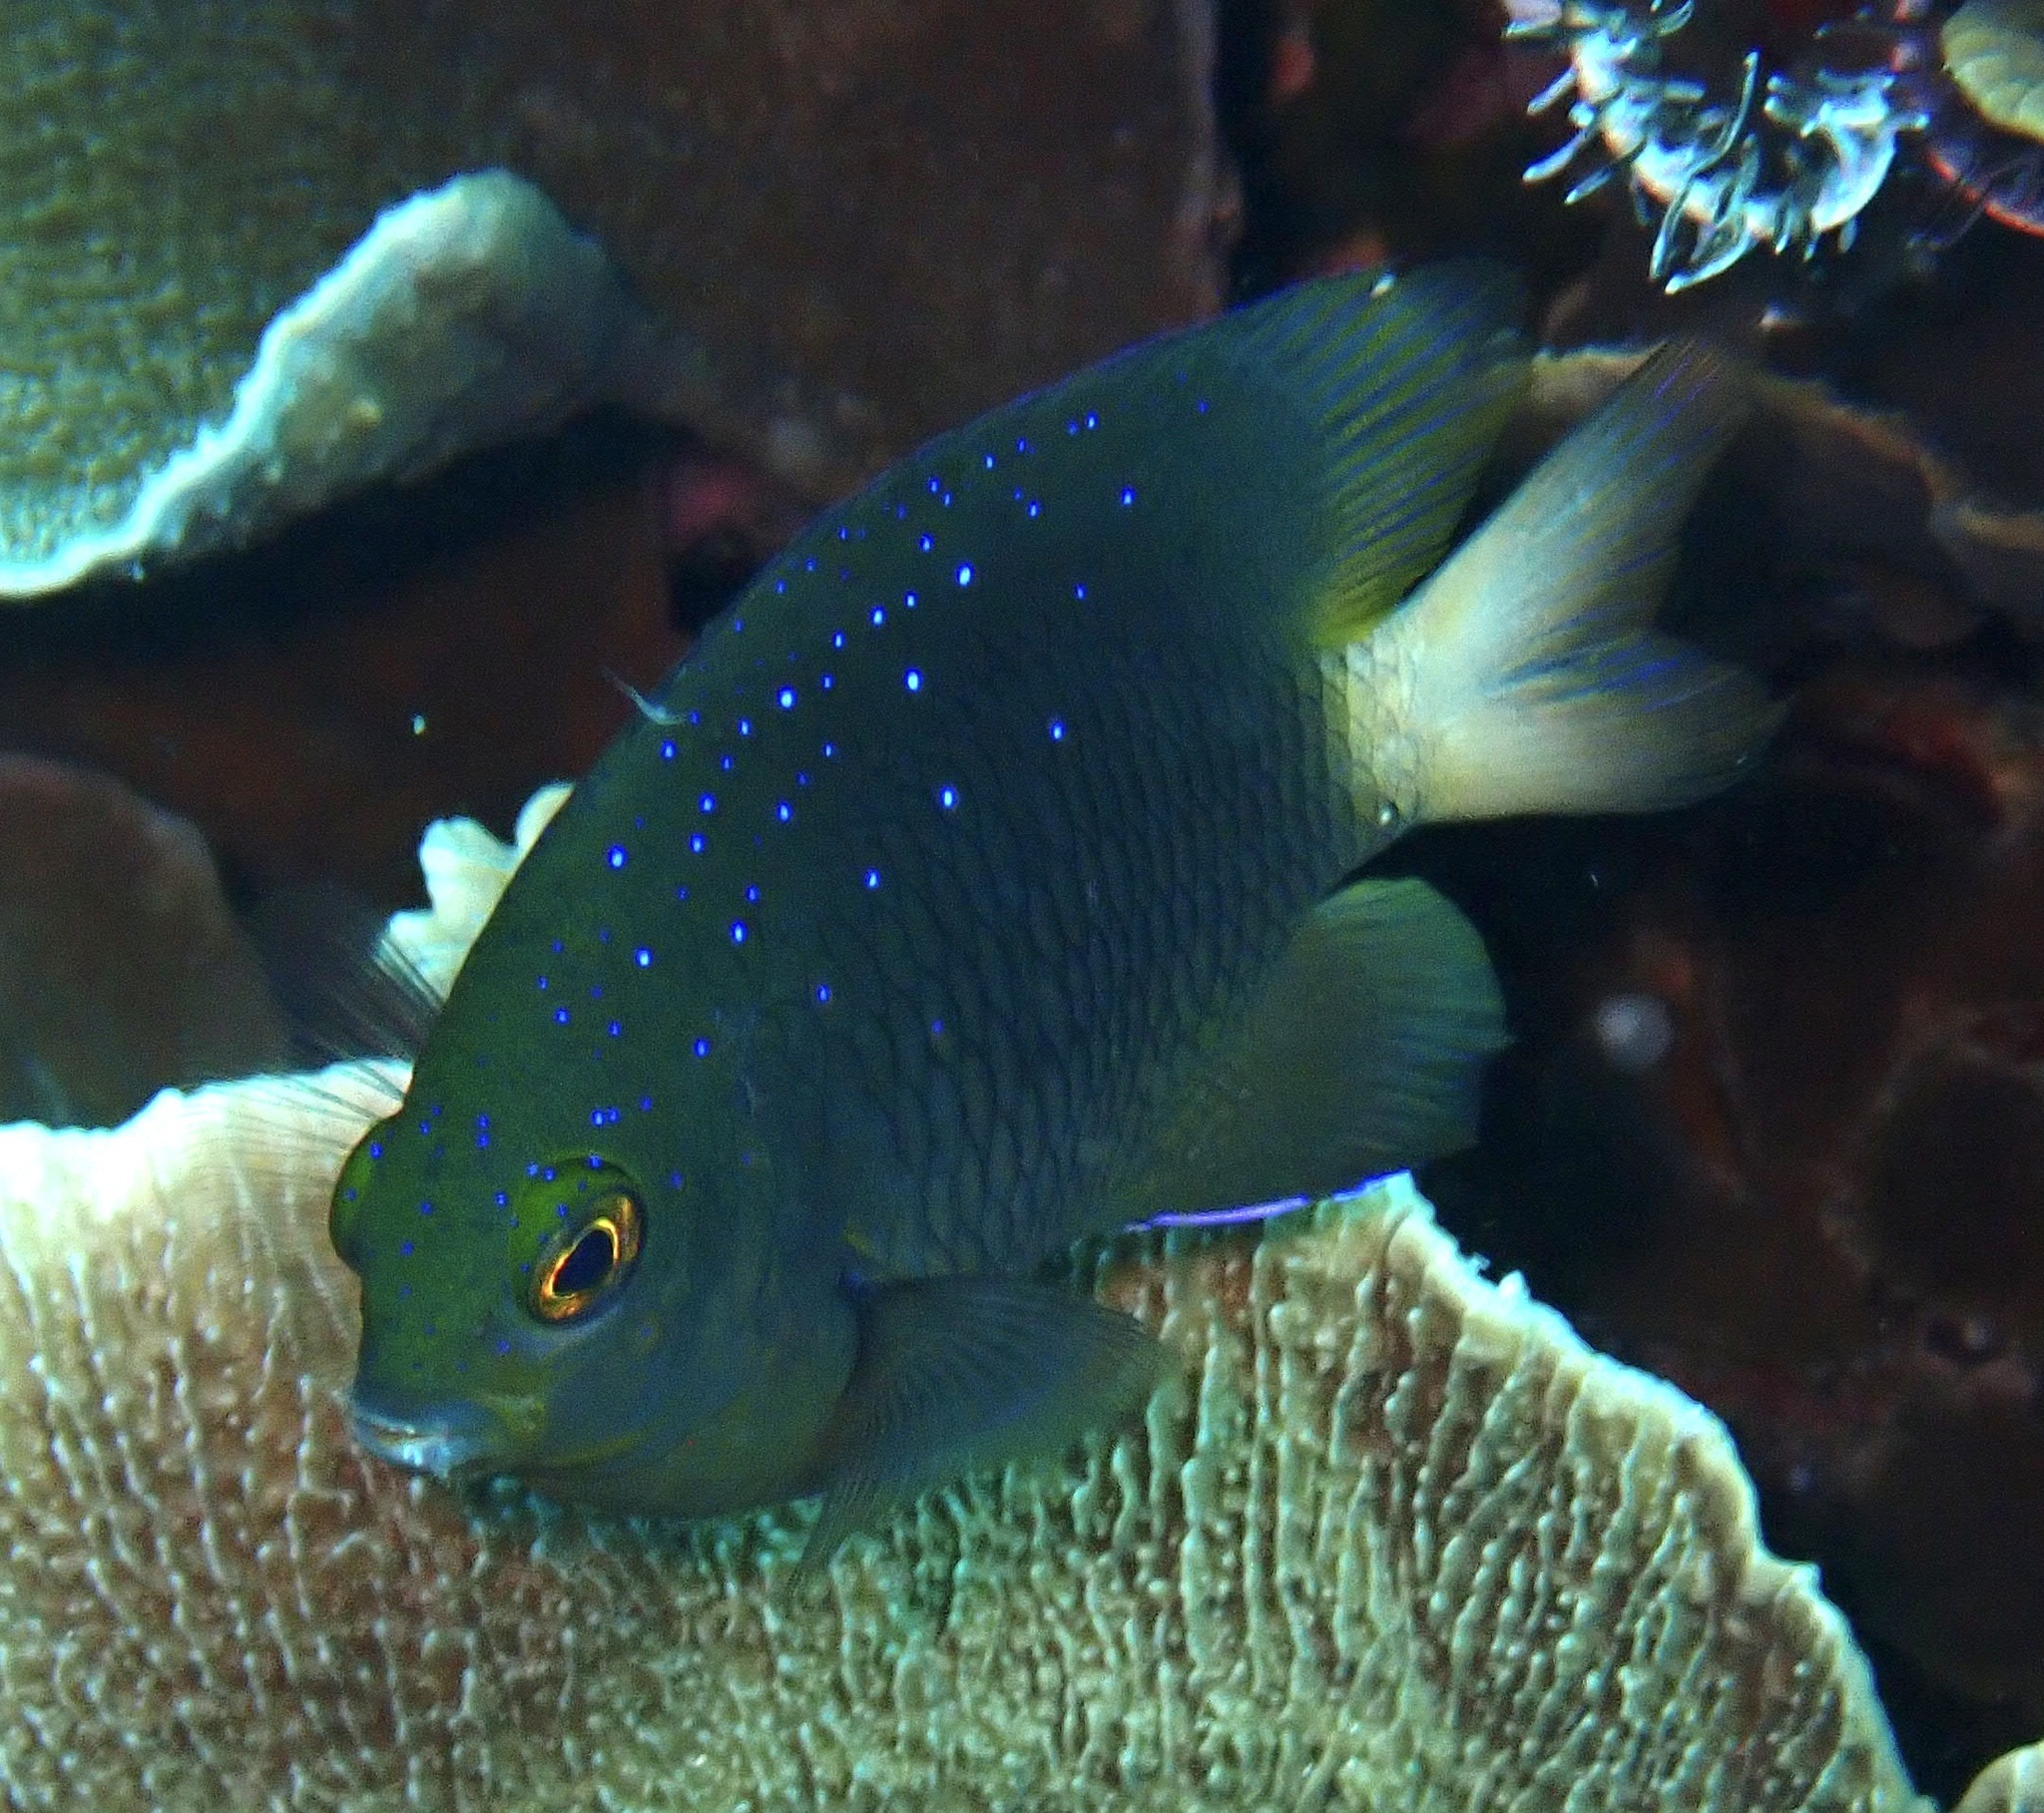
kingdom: Animalia
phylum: Chordata
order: Perciformes
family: Pomacentridae
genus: Plectroglyphidodon
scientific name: Plectroglyphidodon lacrymatus
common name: Jewel damsel
